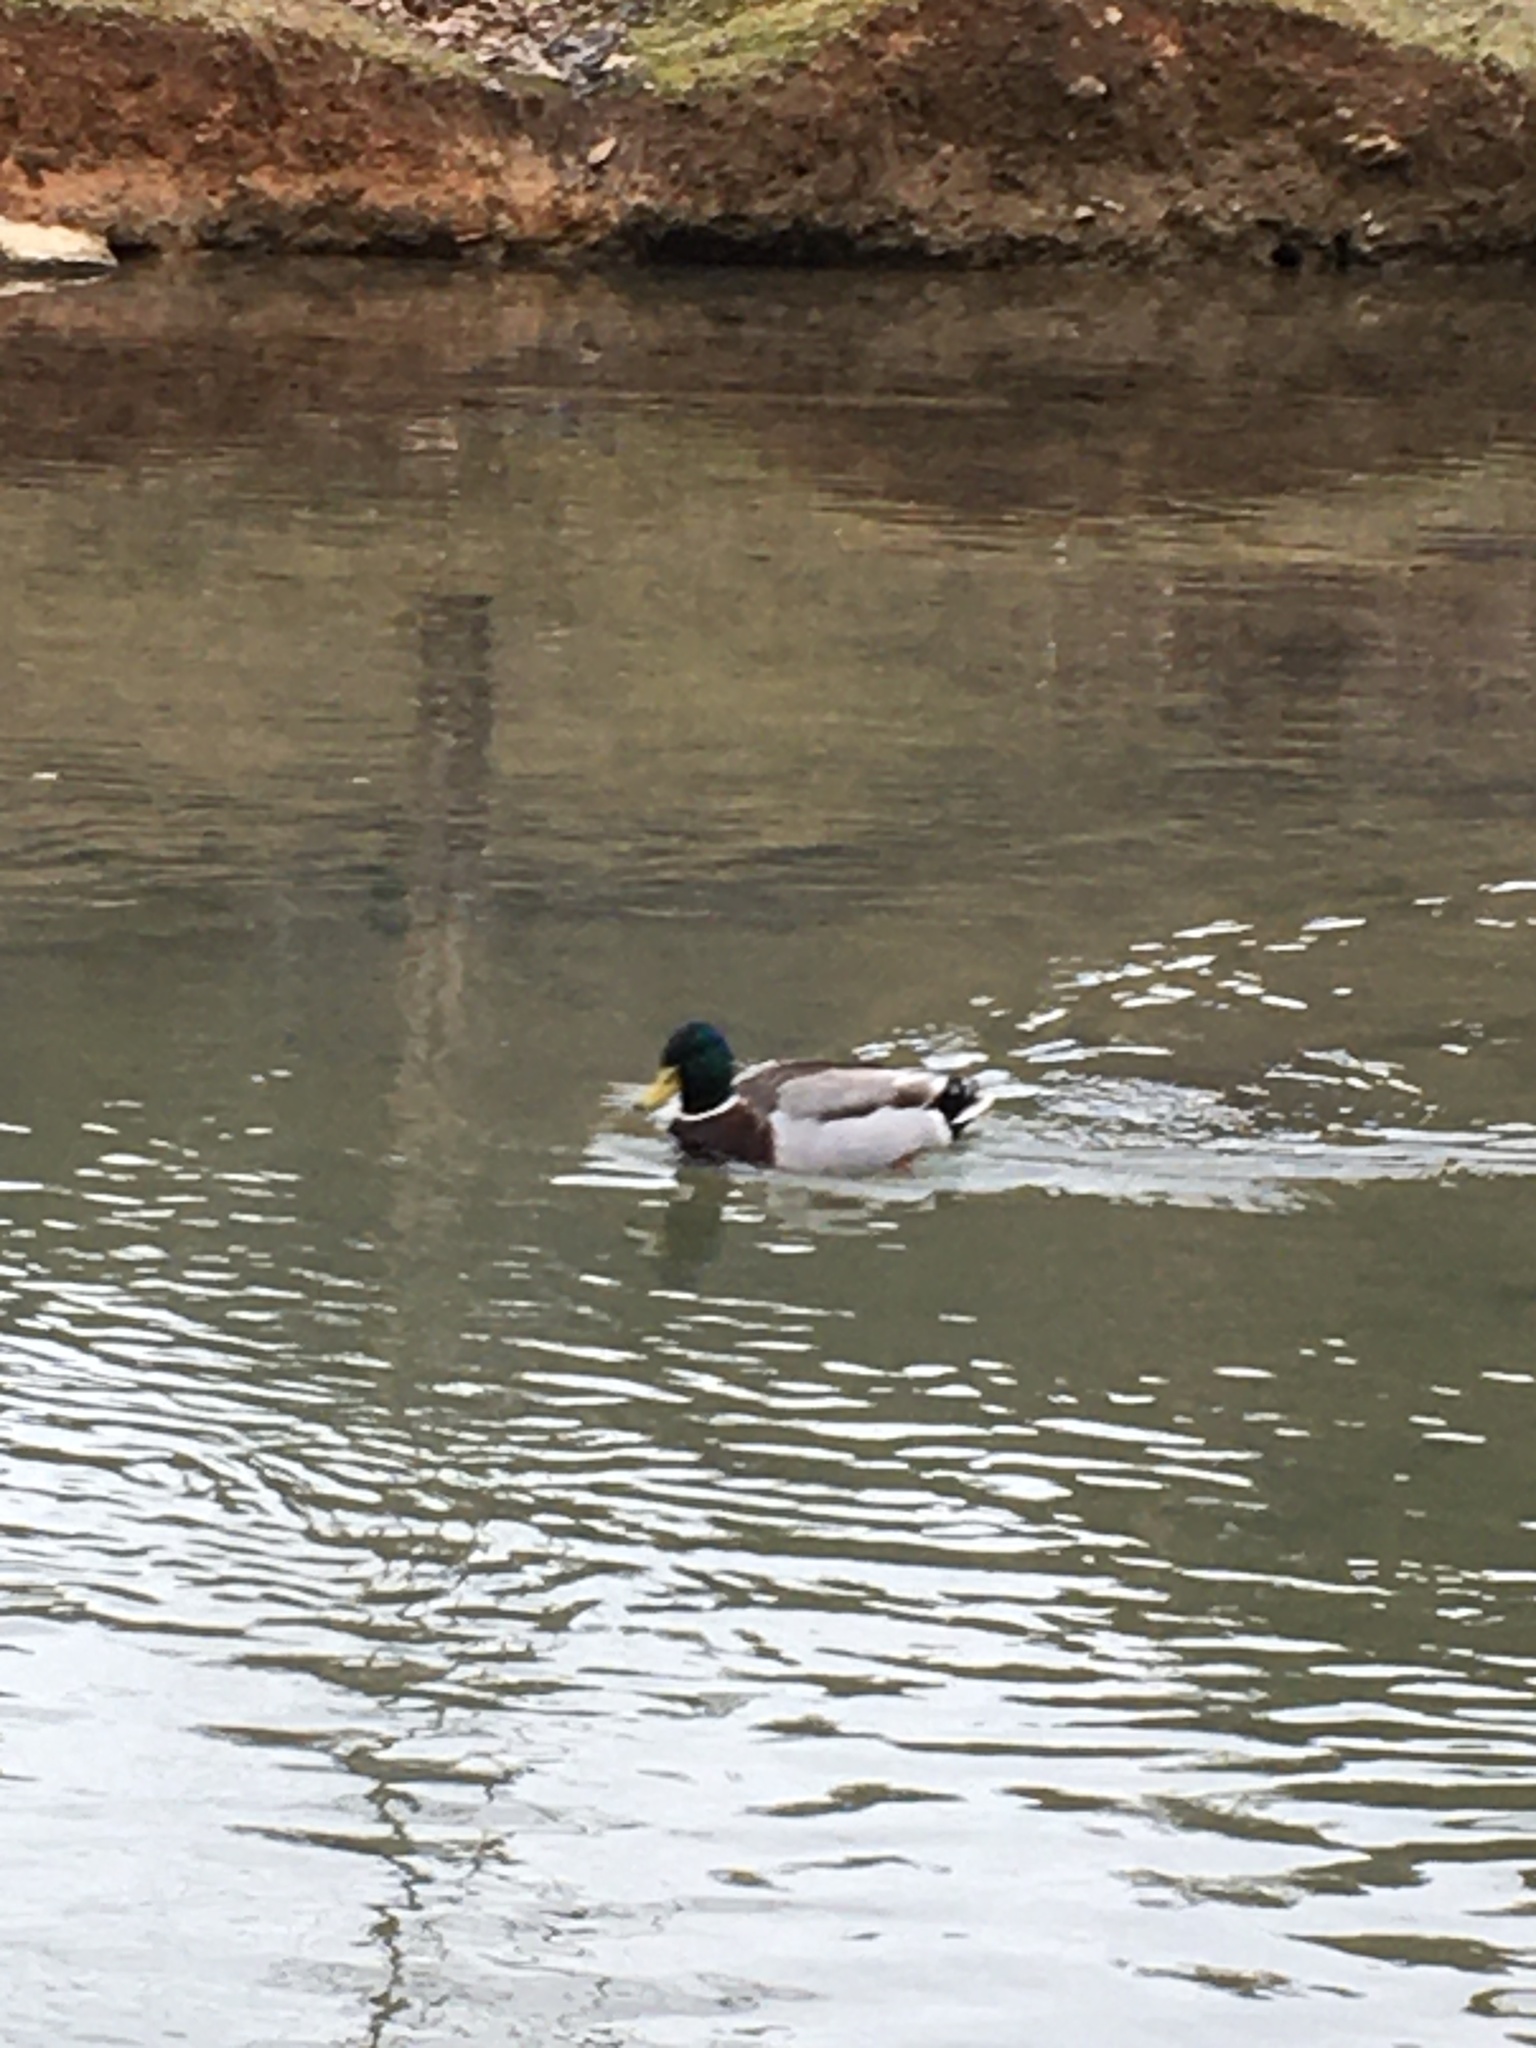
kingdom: Animalia
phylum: Chordata
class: Aves
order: Anseriformes
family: Anatidae
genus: Anas
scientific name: Anas platyrhynchos
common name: Mallard
